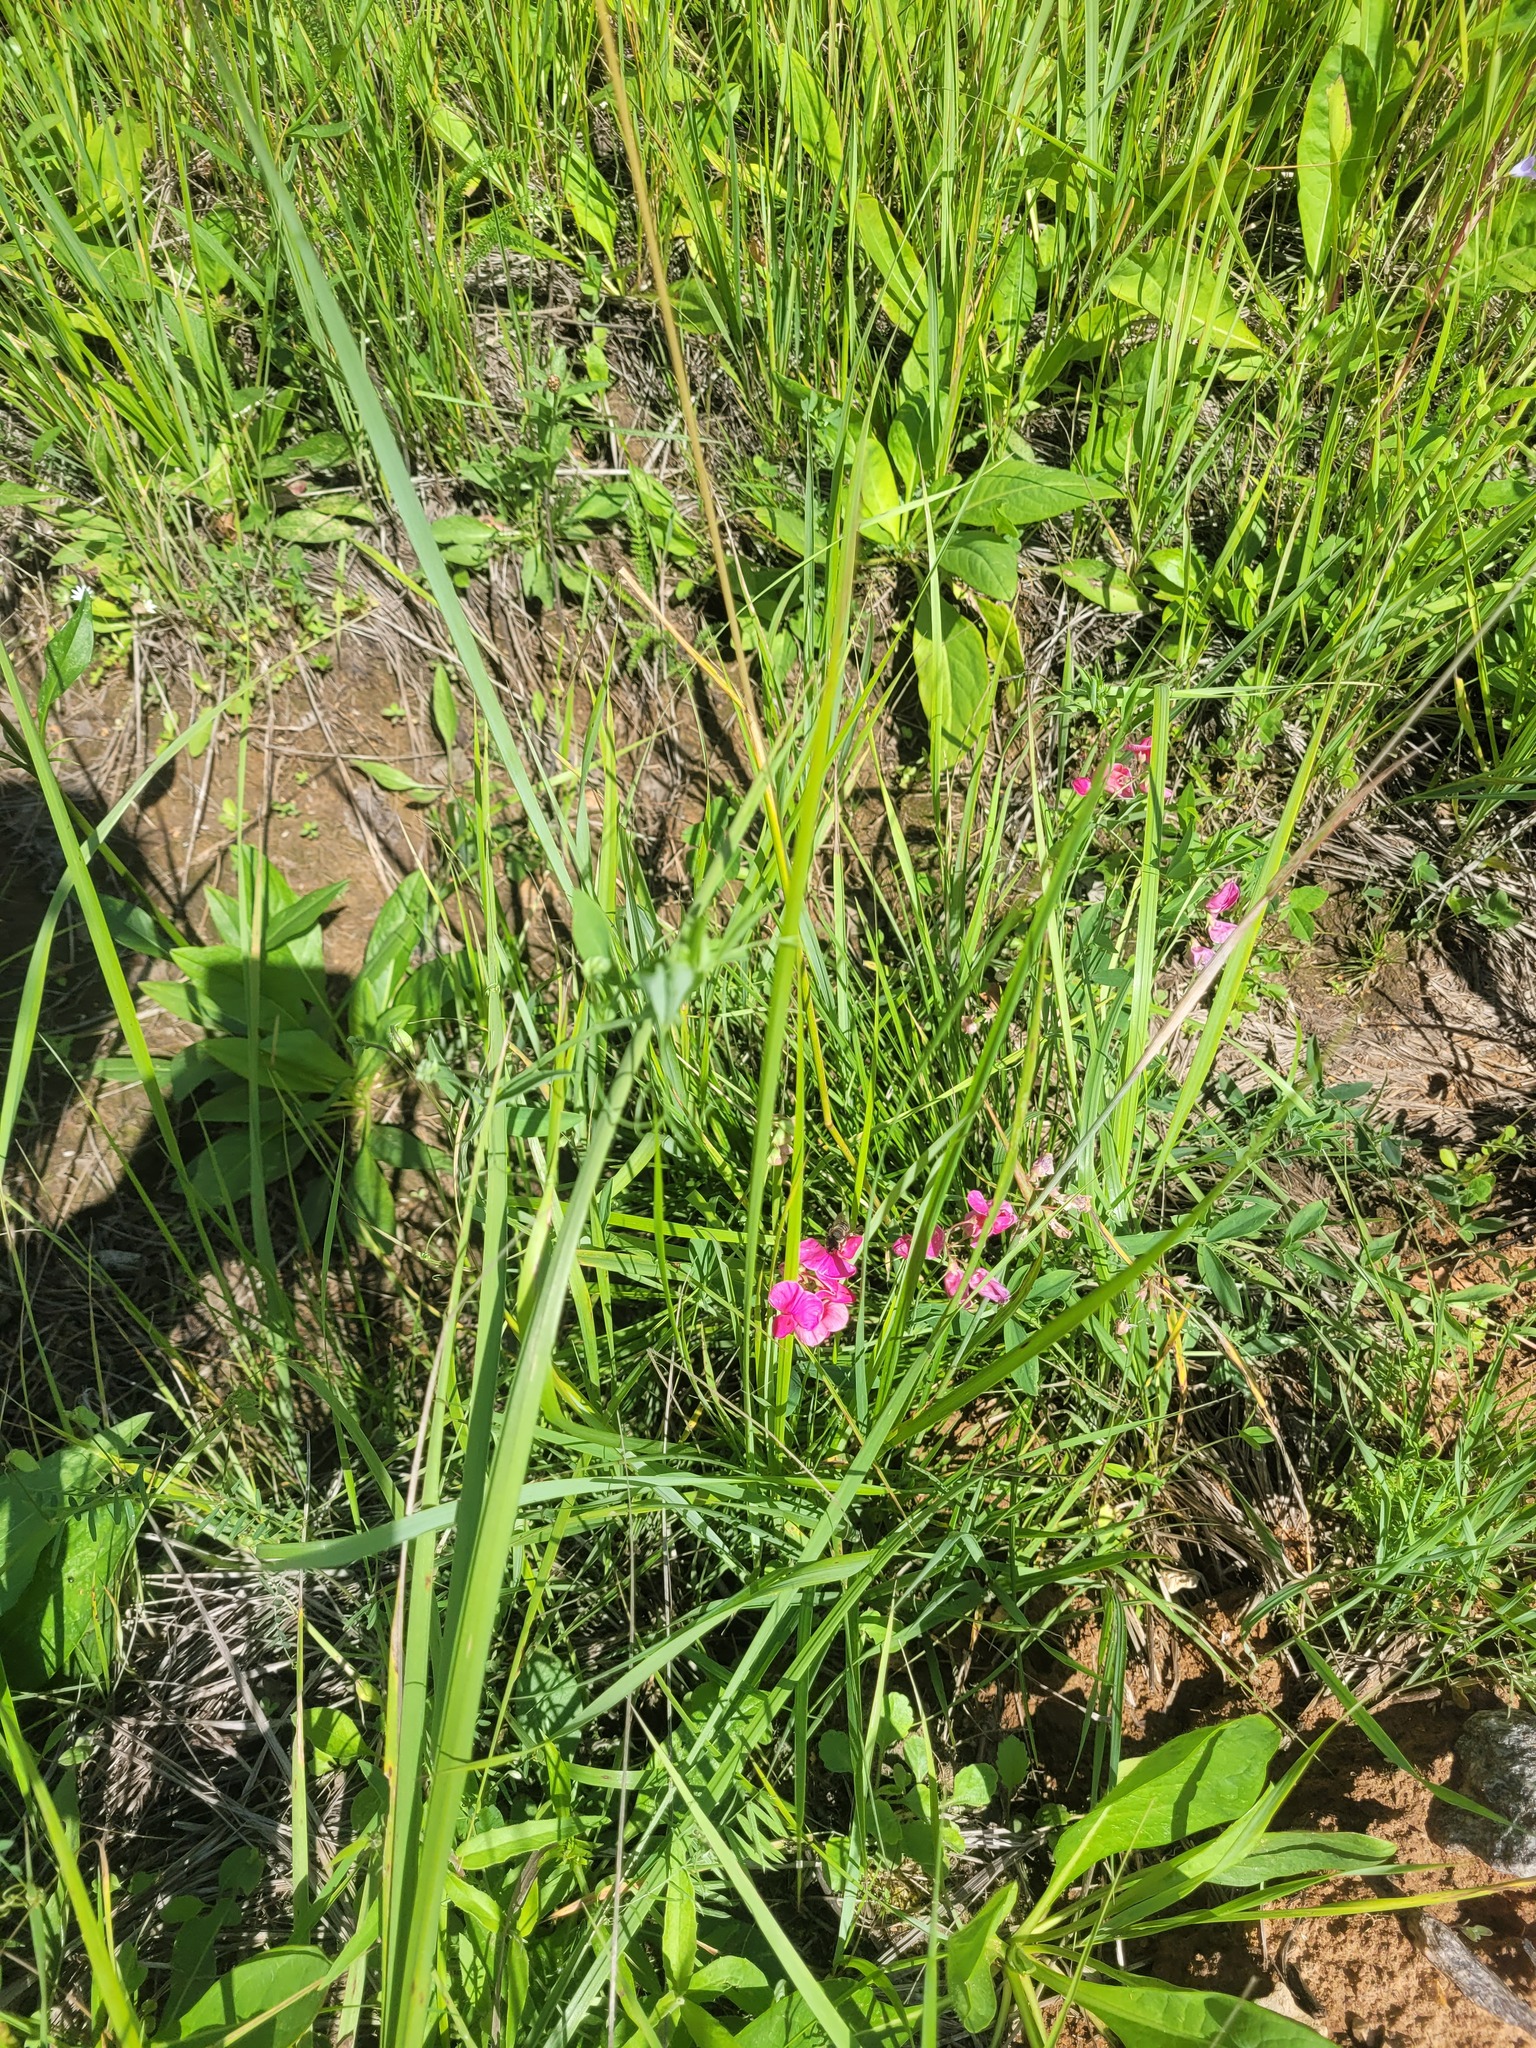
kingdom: Plantae
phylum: Tracheophyta
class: Magnoliopsida
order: Fabales
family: Fabaceae
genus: Lathyrus
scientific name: Lathyrus tuberosus
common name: Tuberous pea
